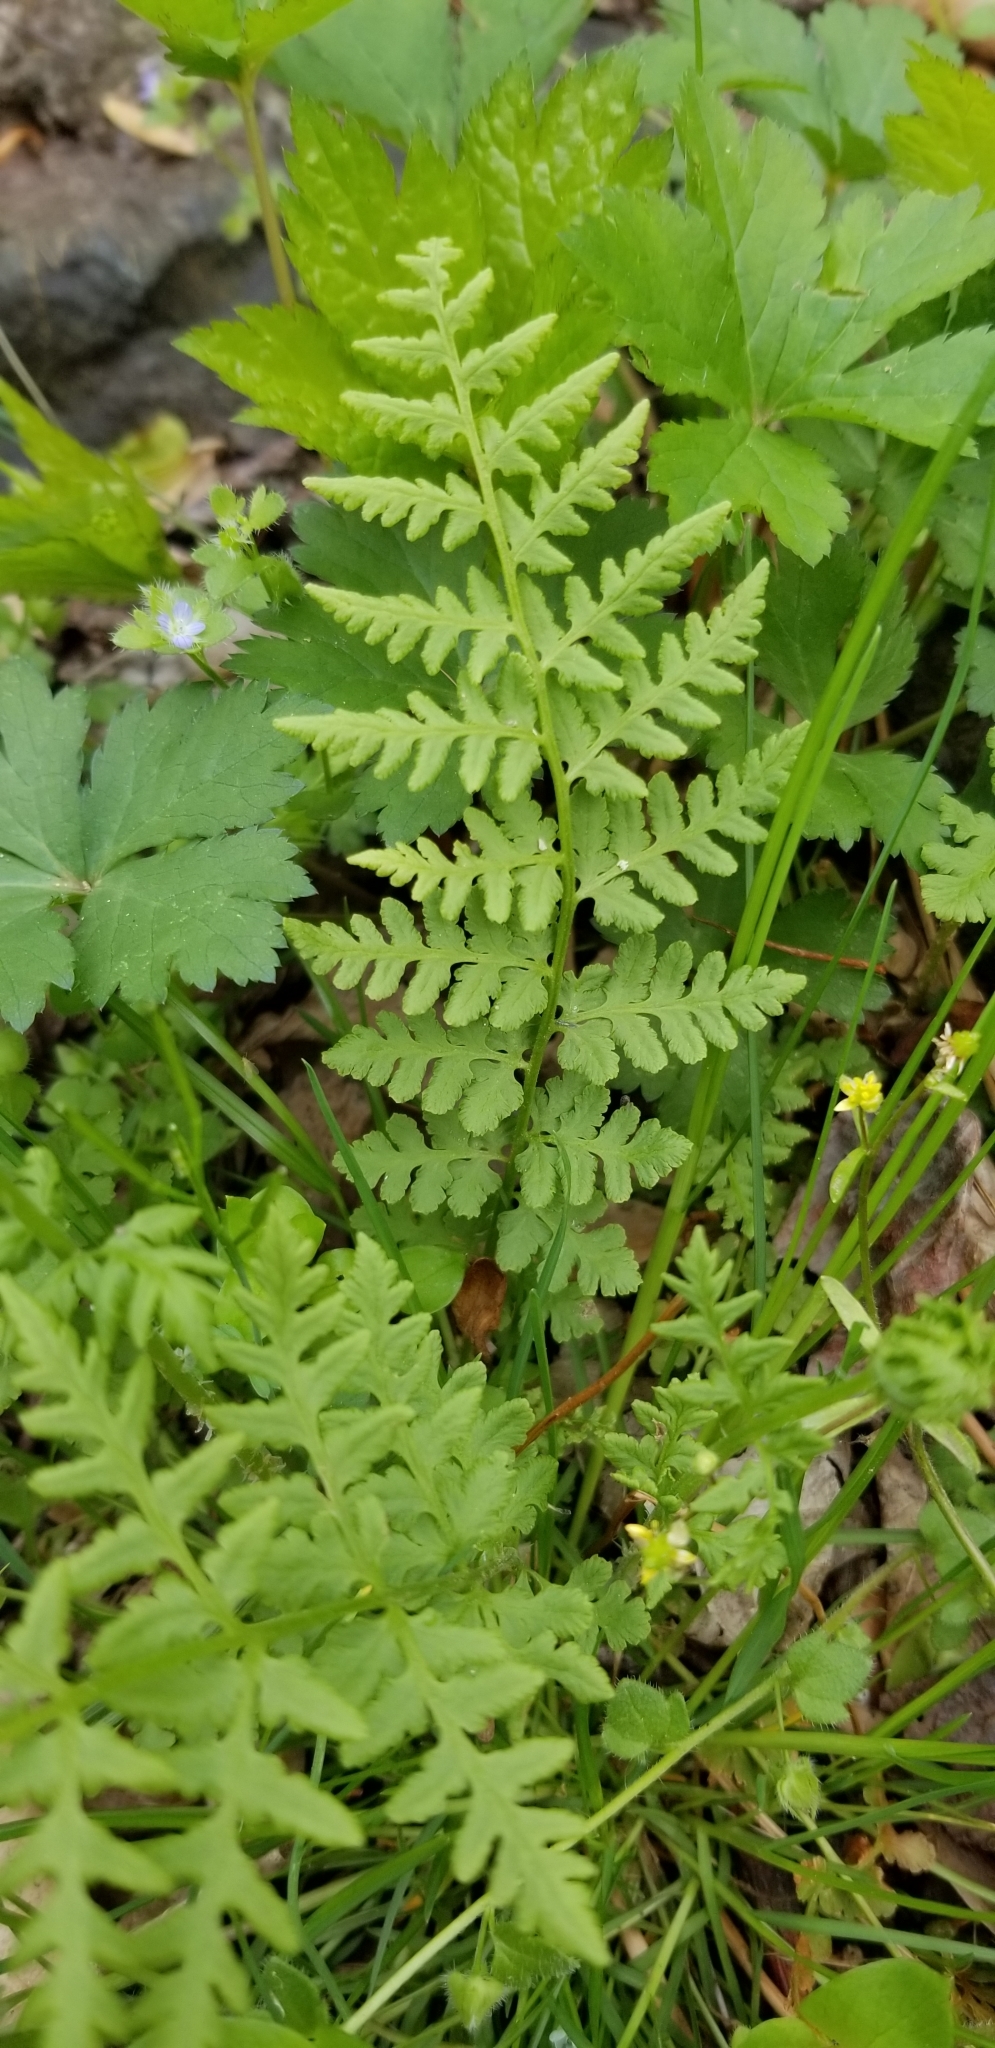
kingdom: Plantae
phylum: Tracheophyta
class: Polypodiopsida
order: Polypodiales
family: Woodsiaceae
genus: Physematium
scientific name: Physematium obtusum
